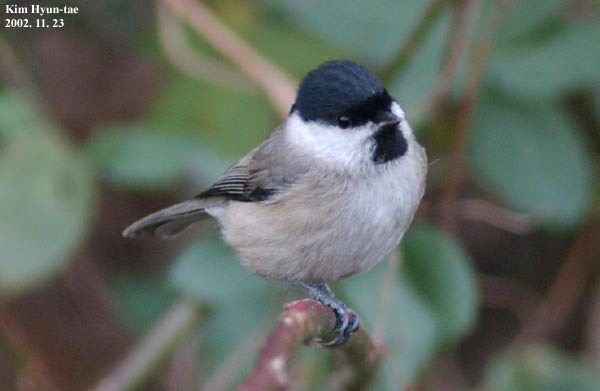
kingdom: Animalia
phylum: Chordata
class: Aves
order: Passeriformes
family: Paridae
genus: Poecile
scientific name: Poecile palustris
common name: Marsh tit
